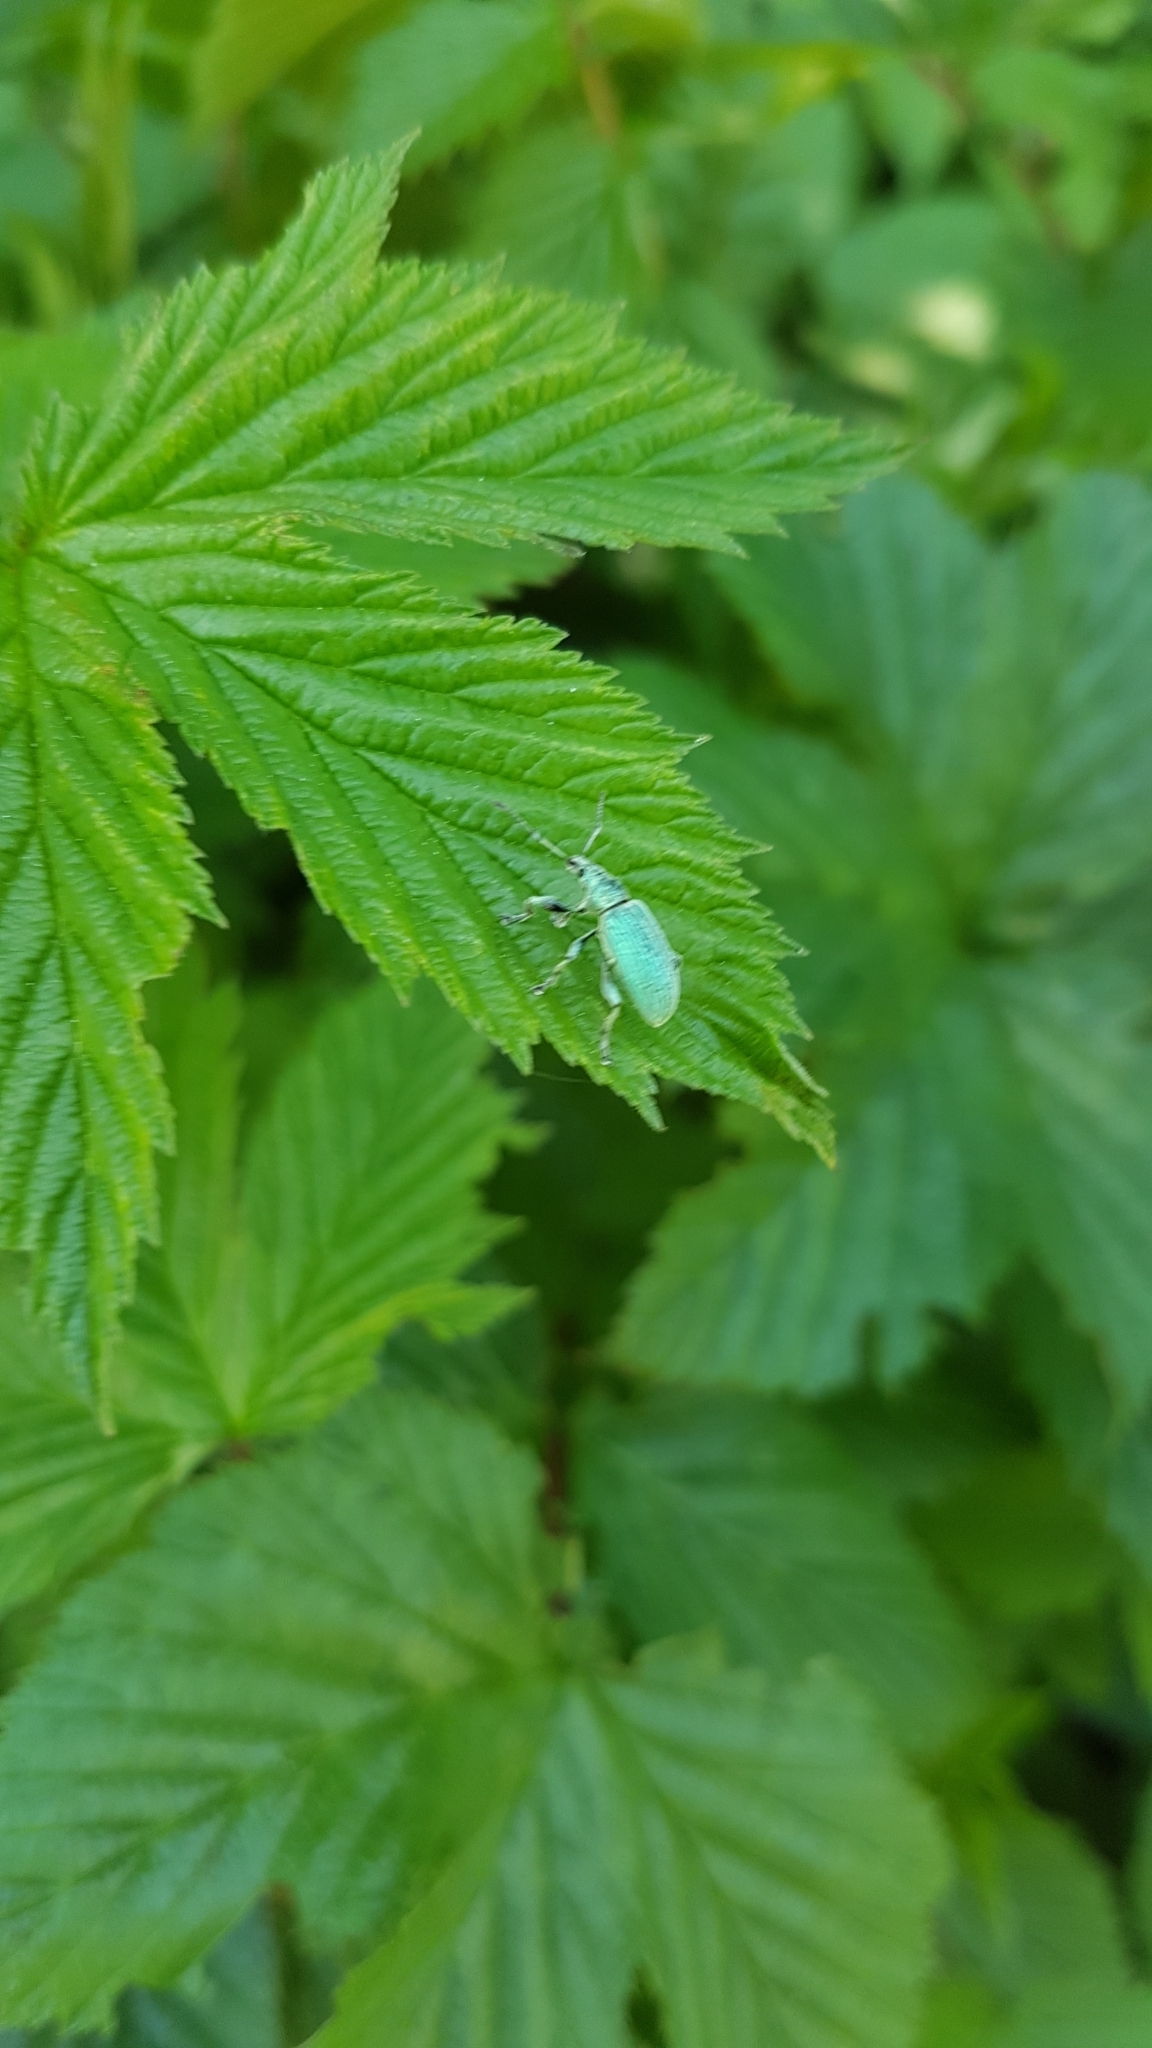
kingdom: Animalia
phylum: Arthropoda
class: Insecta
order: Coleoptera
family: Curculionidae
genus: Phyllobius
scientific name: Phyllobius pomaceus
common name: Green nettle weevil
